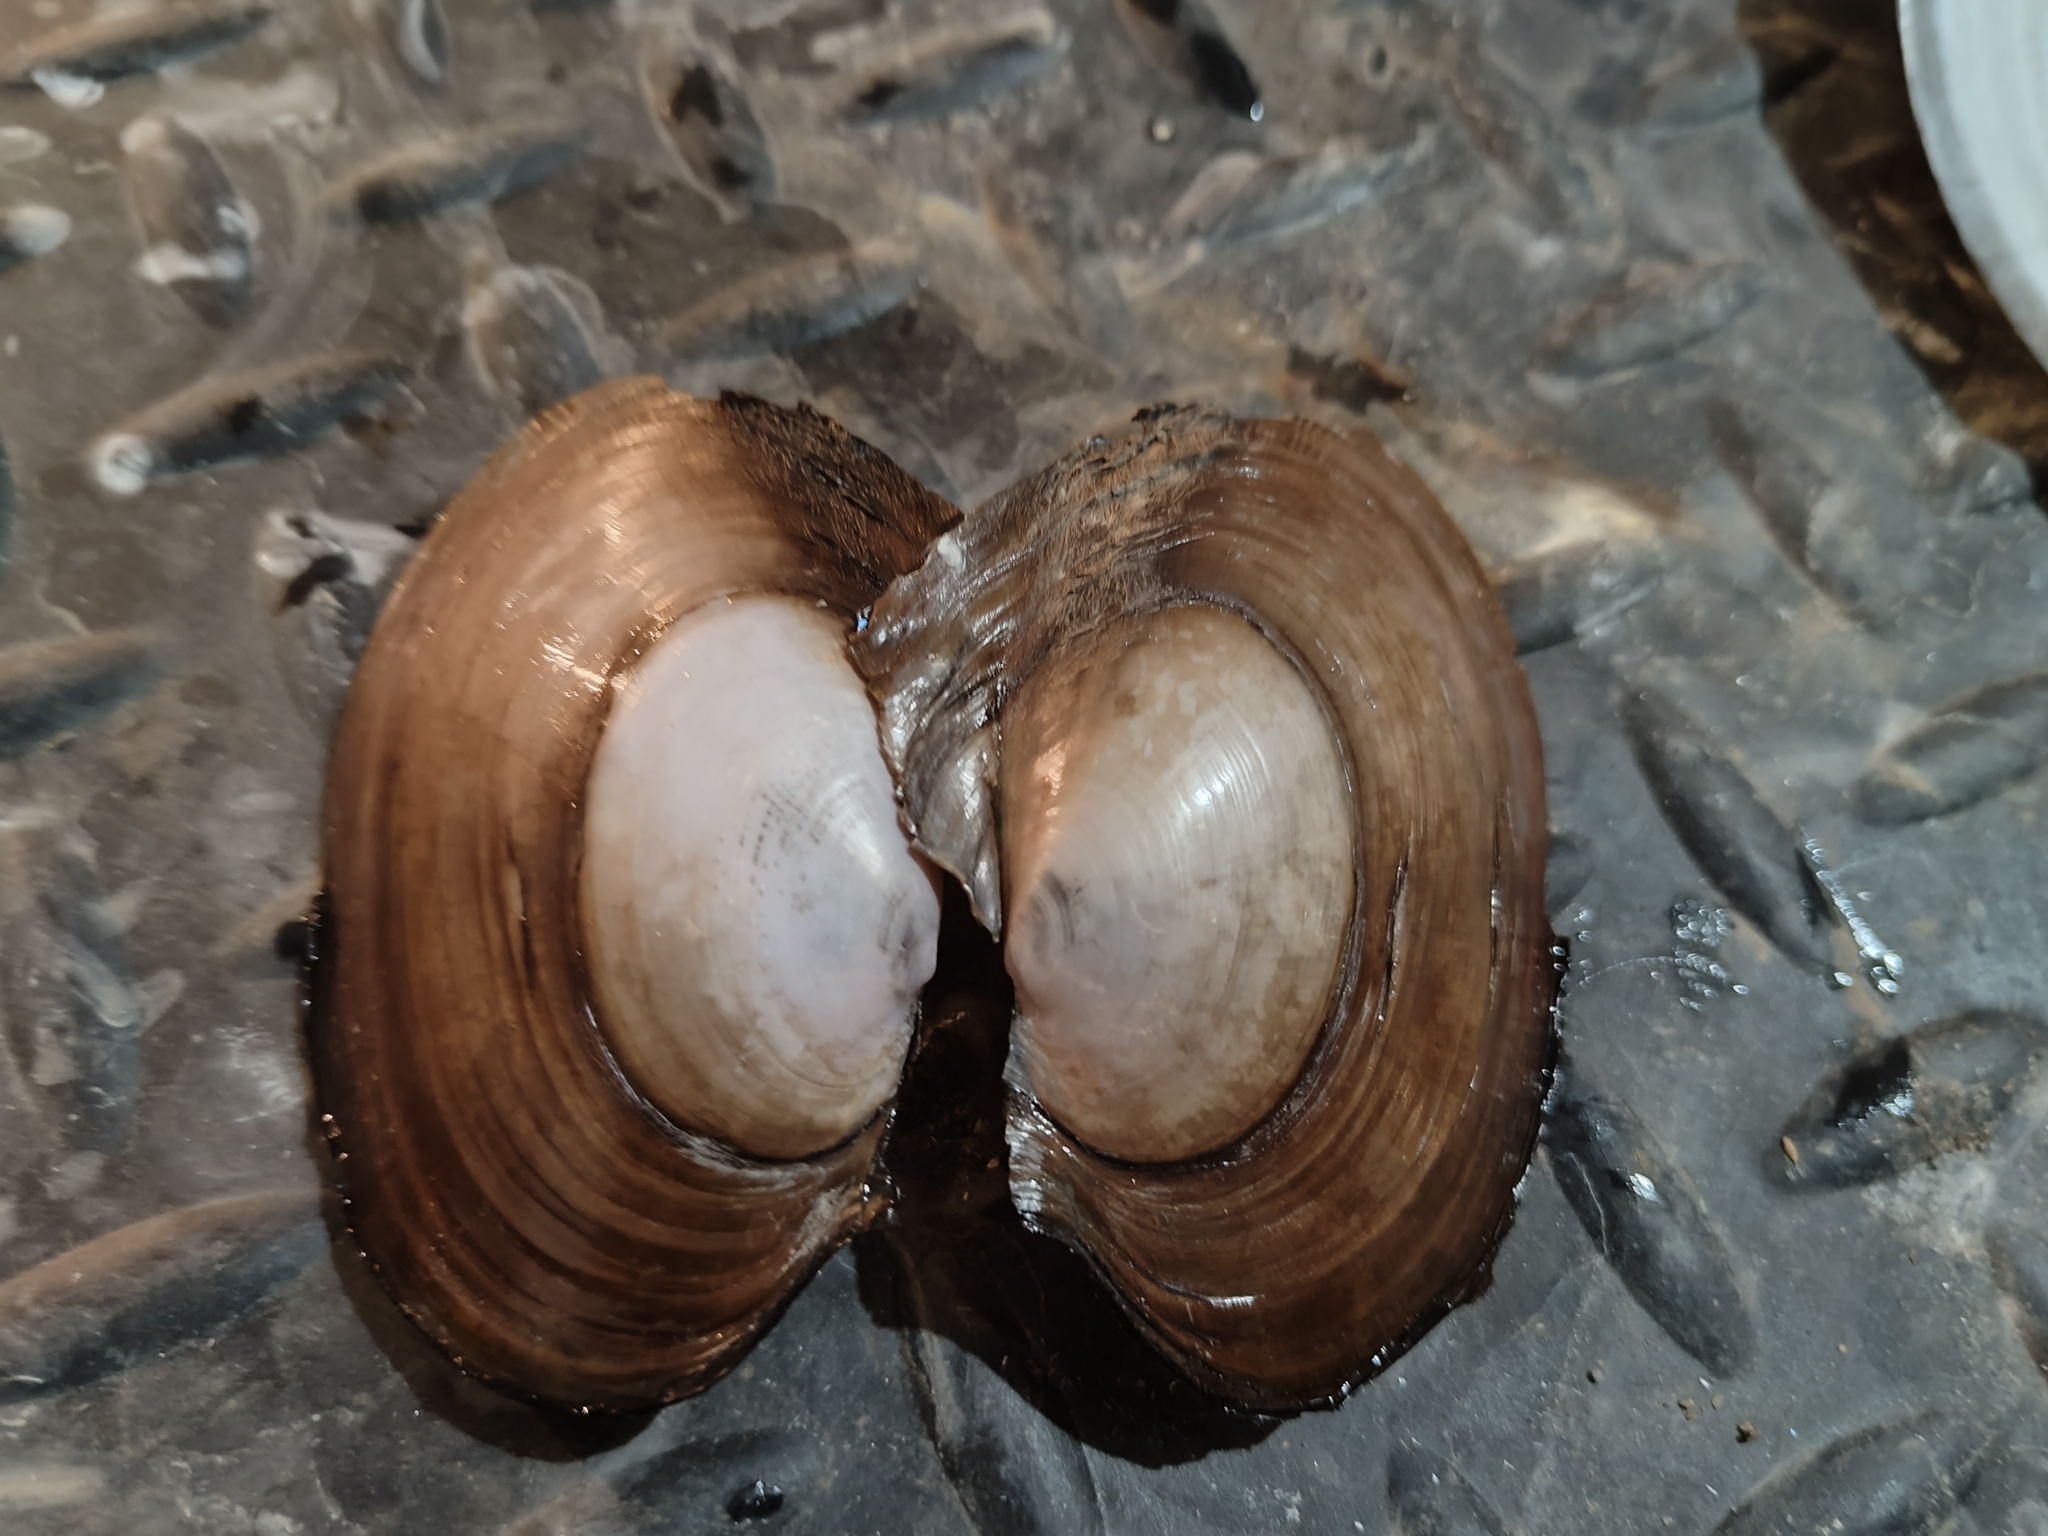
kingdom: Animalia
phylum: Mollusca
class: Bivalvia
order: Unionida
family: Unionidae
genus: Potamilus
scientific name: Potamilus ohiensis
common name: Pink papershell
